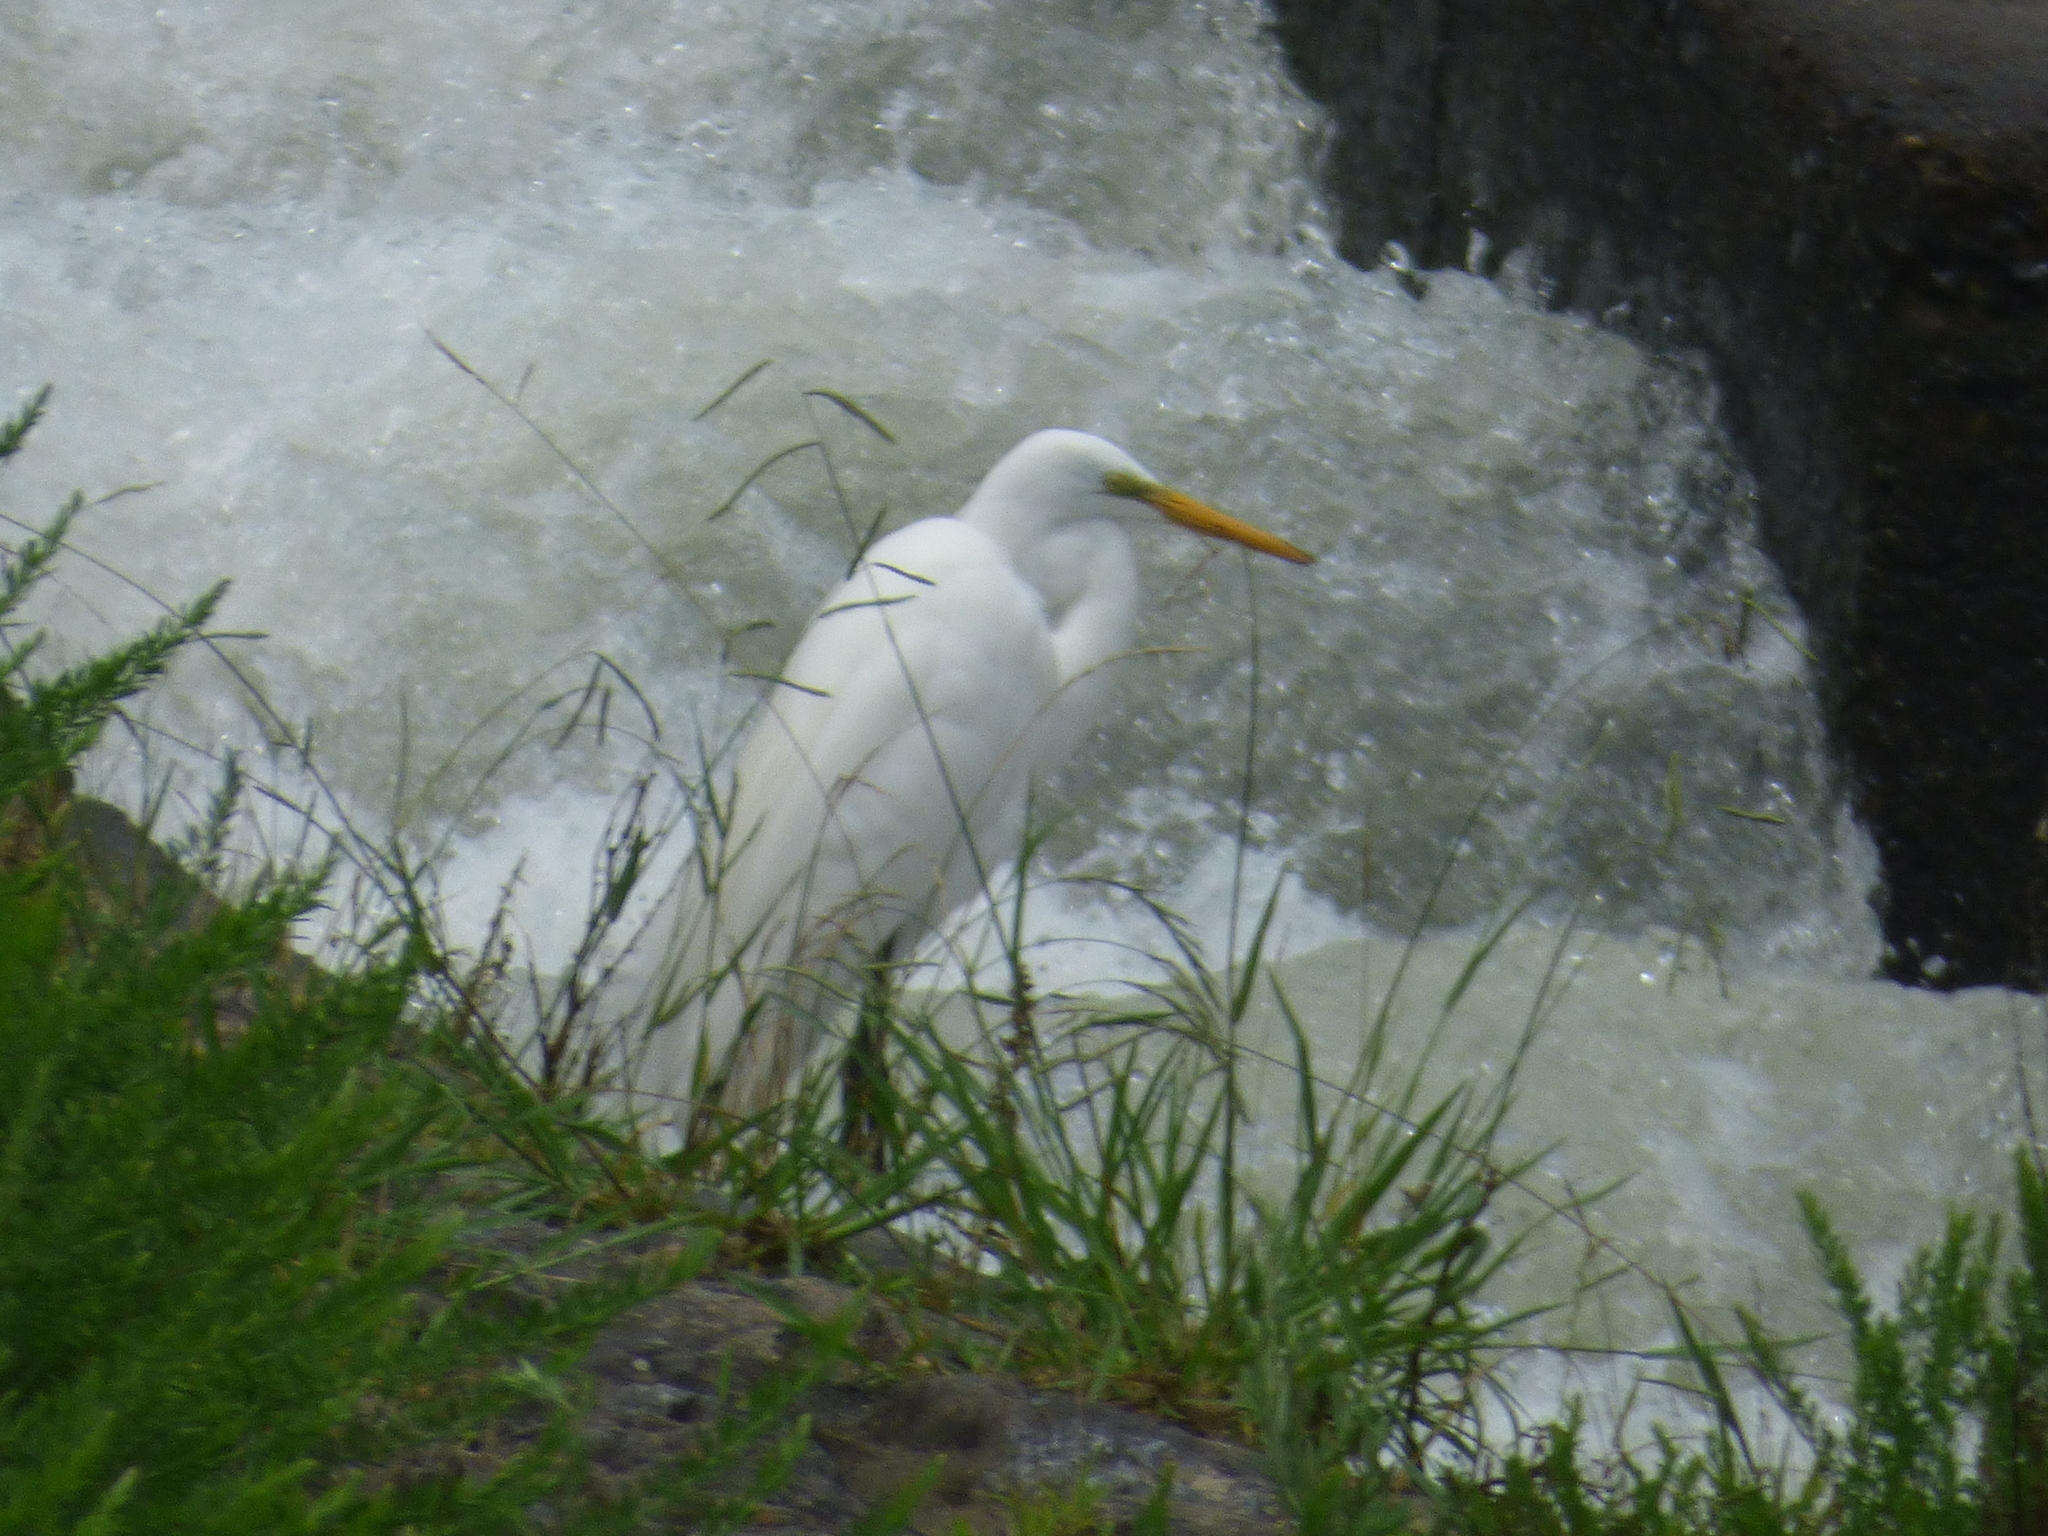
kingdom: Animalia
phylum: Chordata
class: Aves
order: Pelecaniformes
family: Ardeidae
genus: Ardea
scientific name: Ardea alba
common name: Great egret
